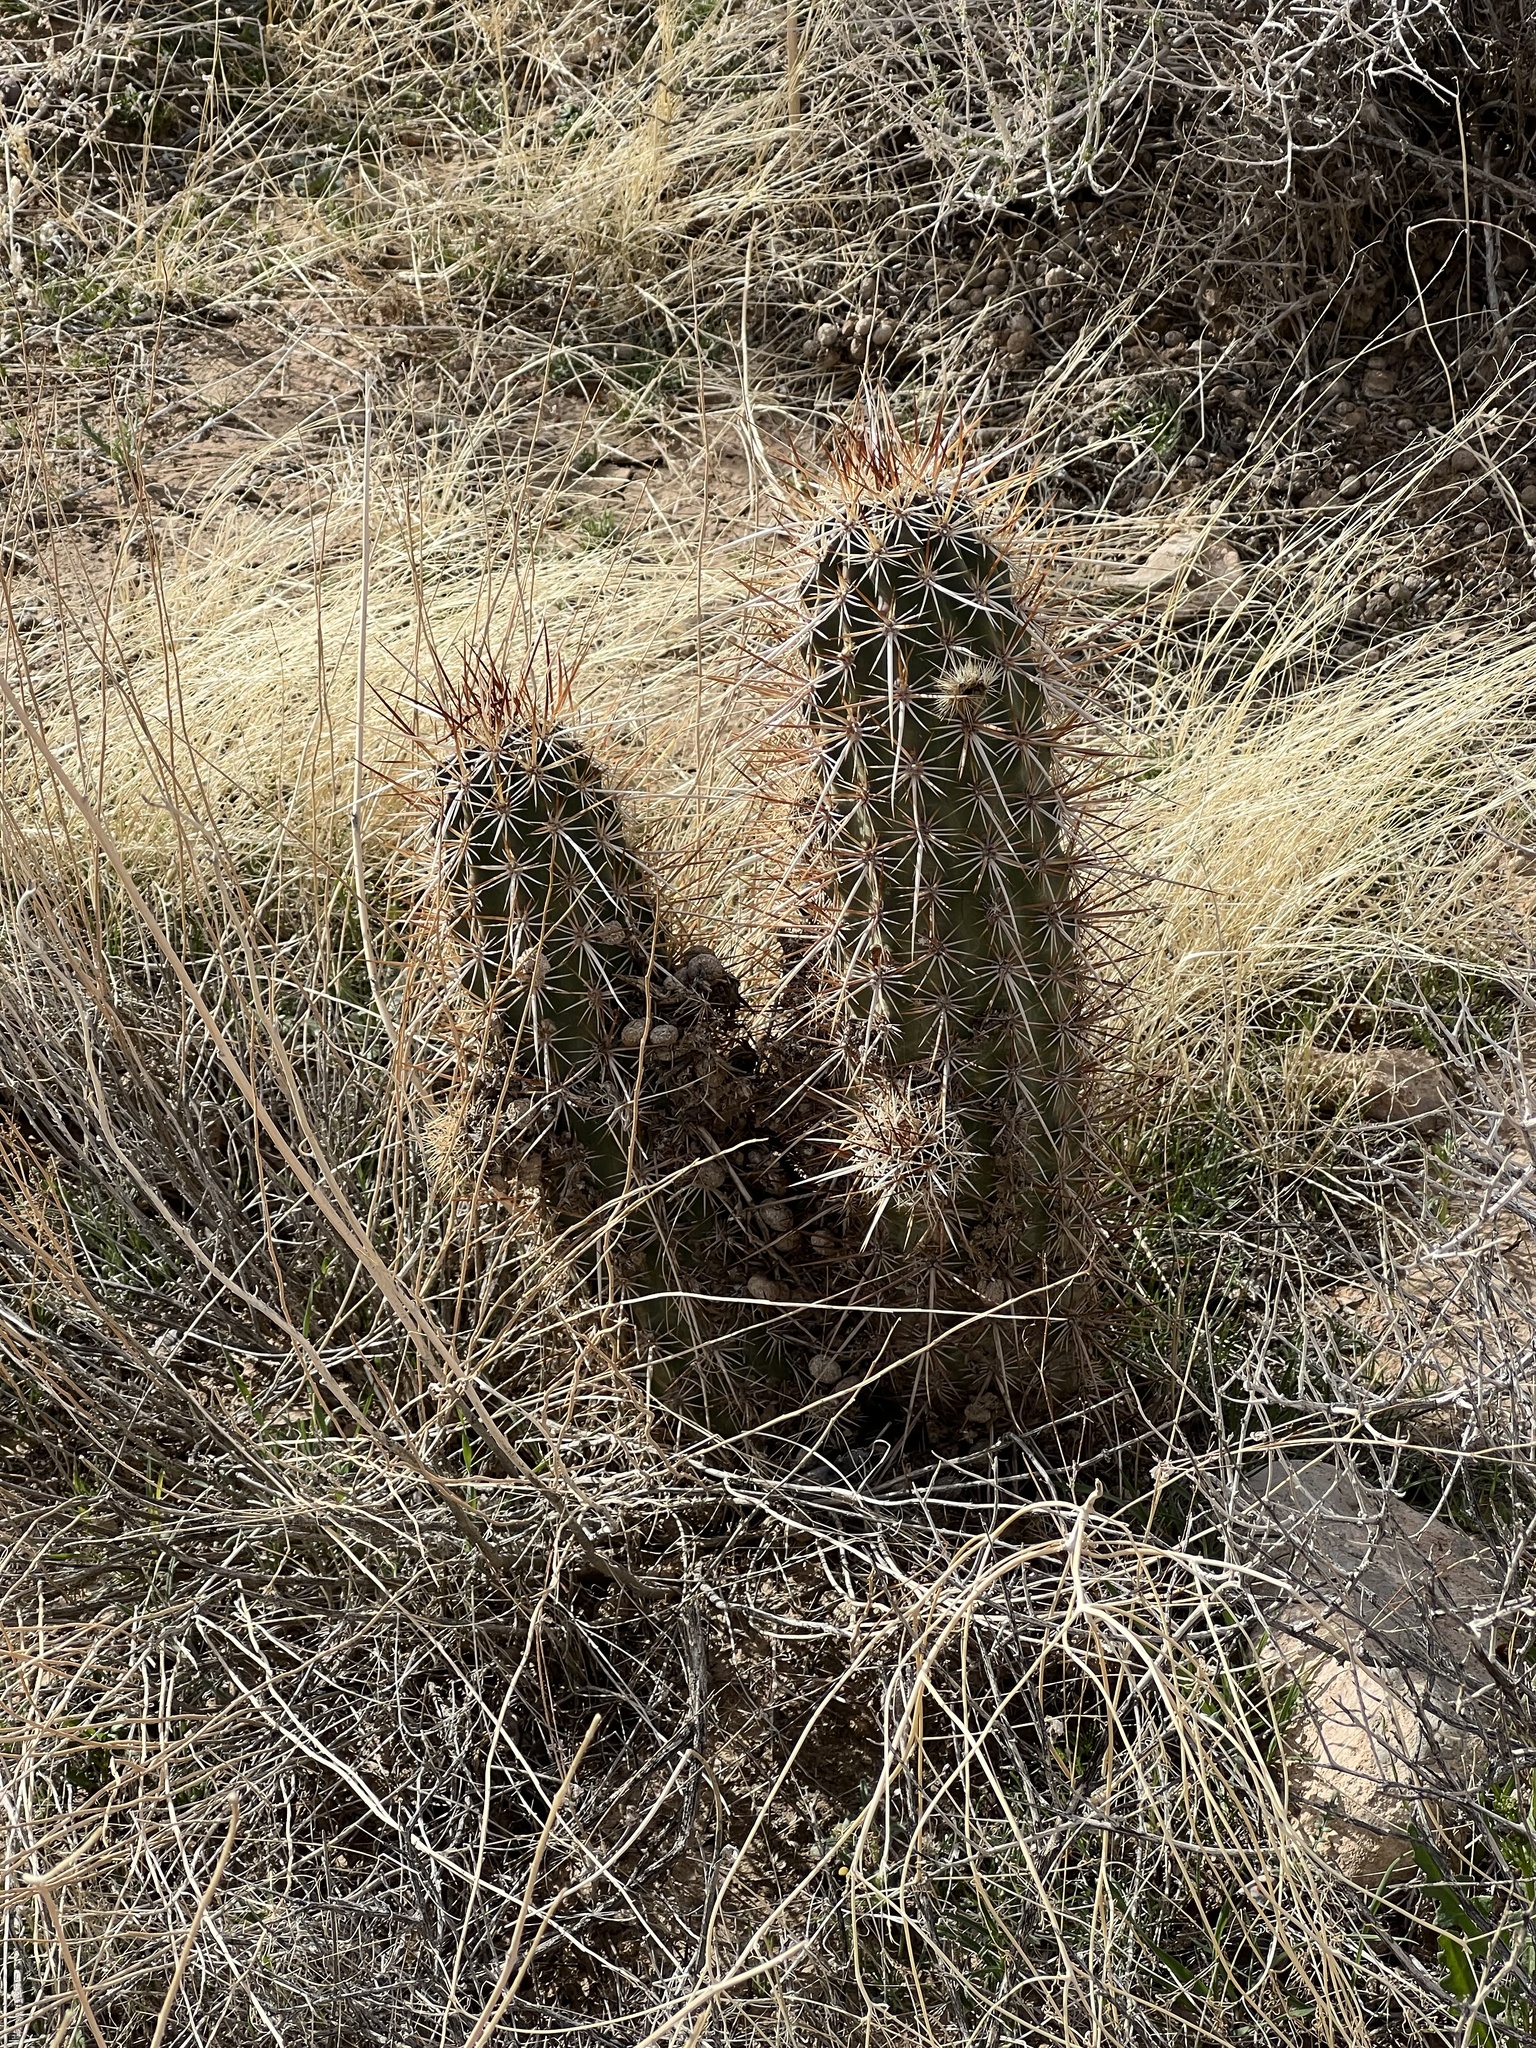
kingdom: Plantae
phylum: Tracheophyta
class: Magnoliopsida
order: Caryophyllales
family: Cactaceae
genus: Echinocereus
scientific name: Echinocereus engelmannii
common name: Engelmann's hedgehog cactus
